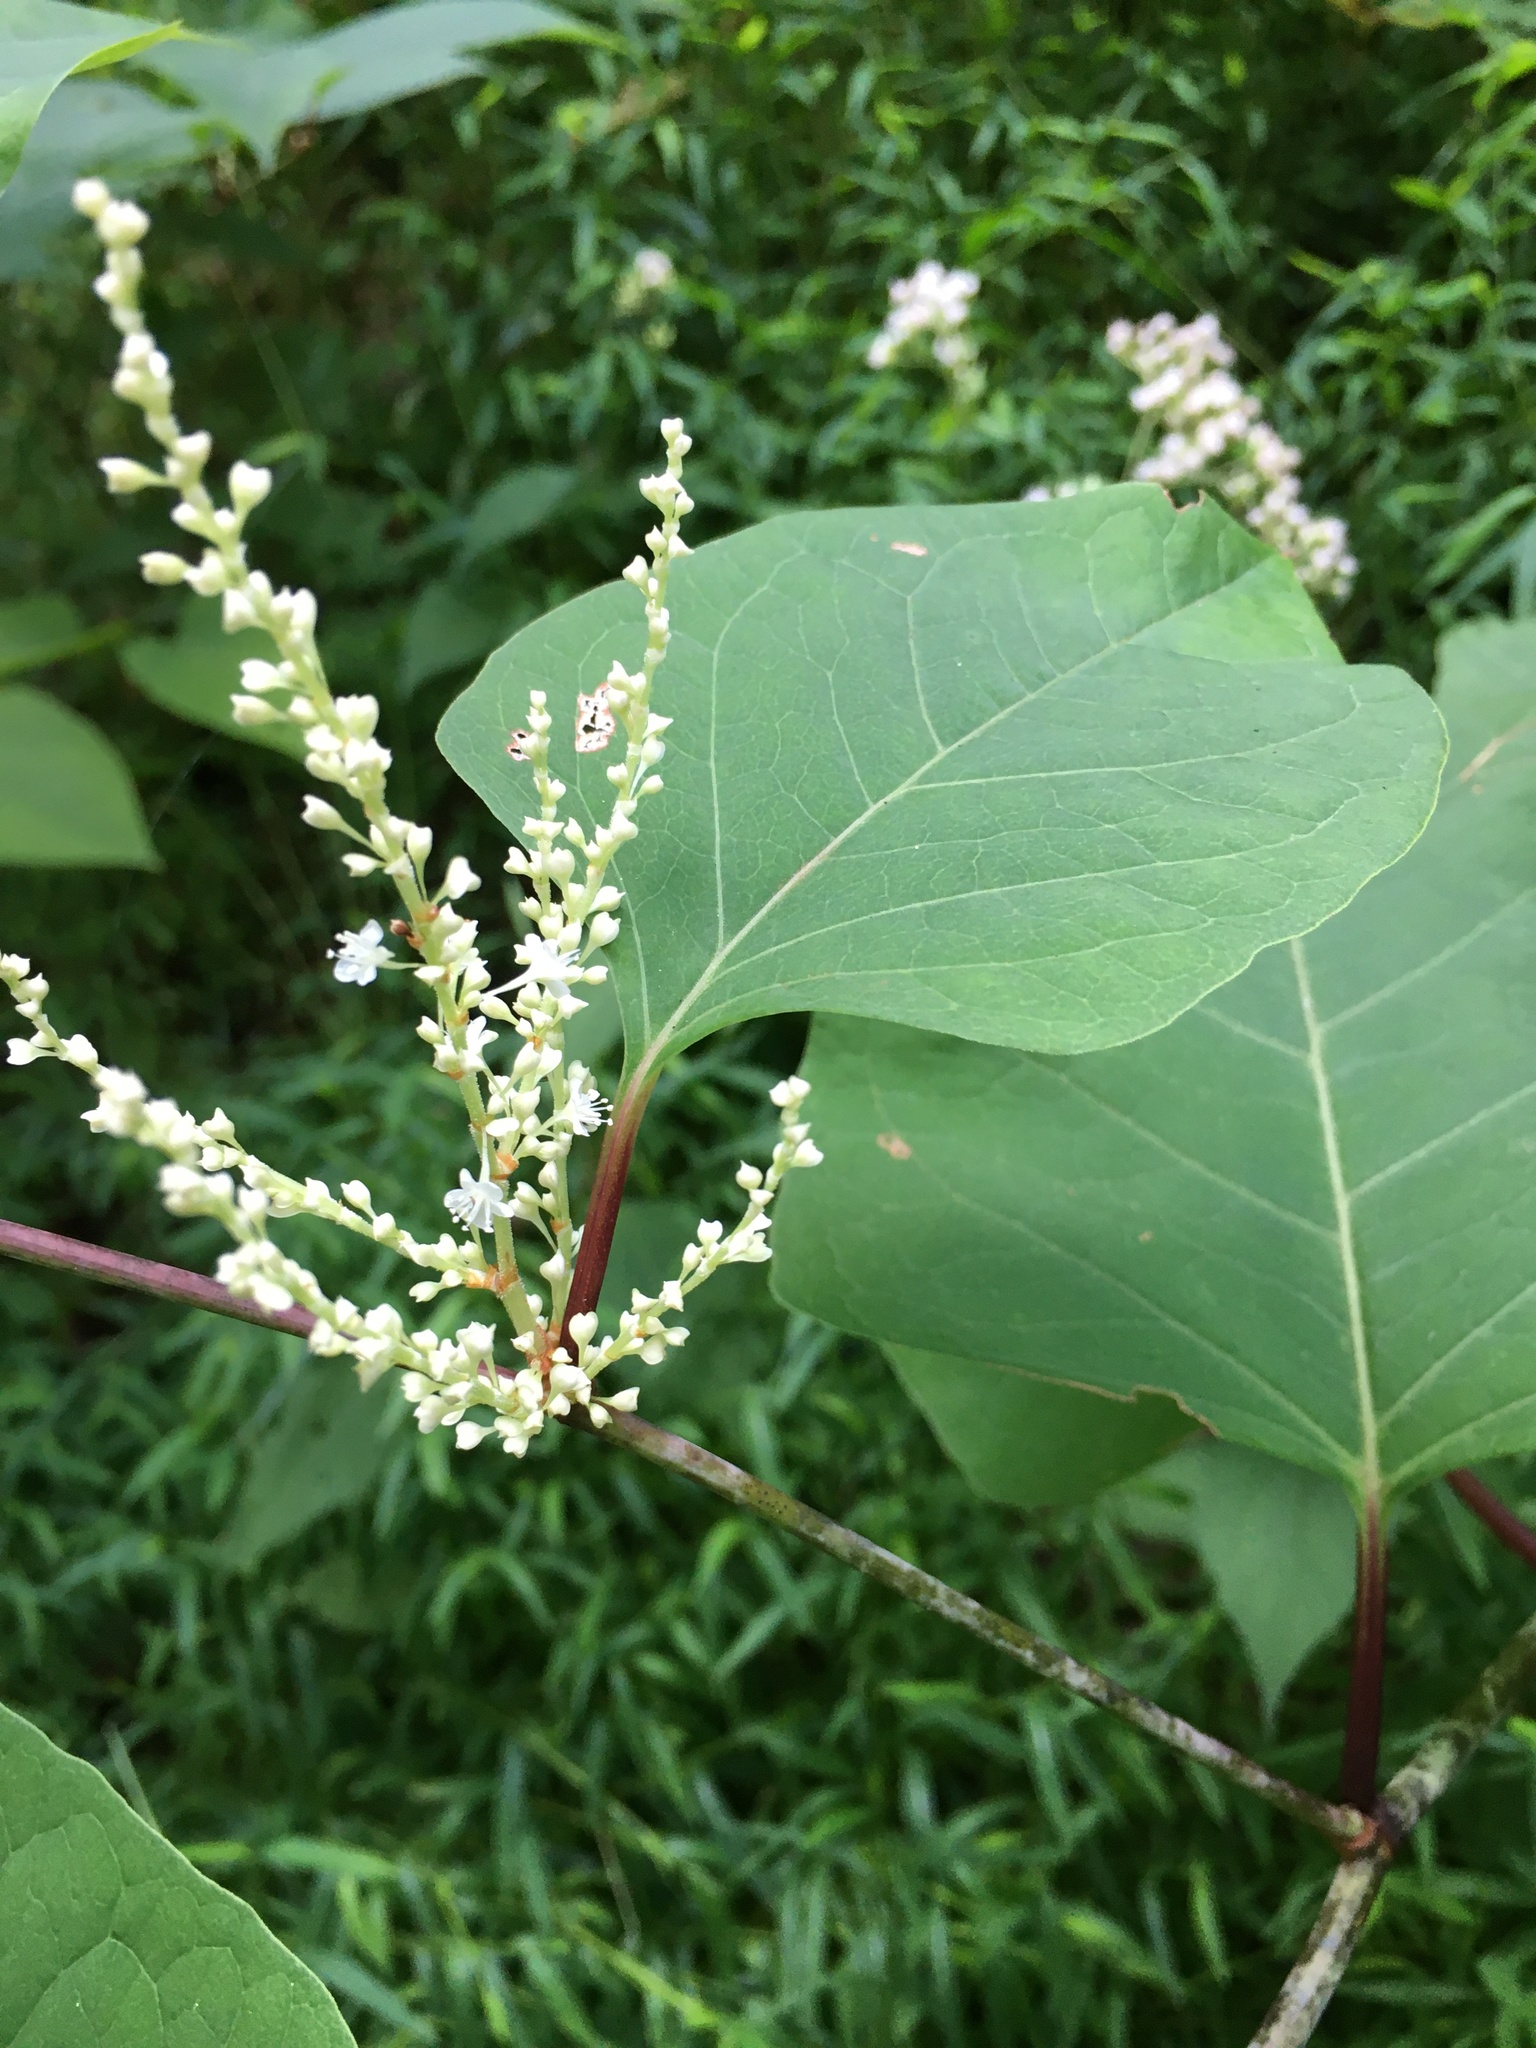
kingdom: Plantae
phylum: Tracheophyta
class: Magnoliopsida
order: Caryophyllales
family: Polygonaceae
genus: Reynoutria
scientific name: Reynoutria japonica
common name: Japanese knotweed
